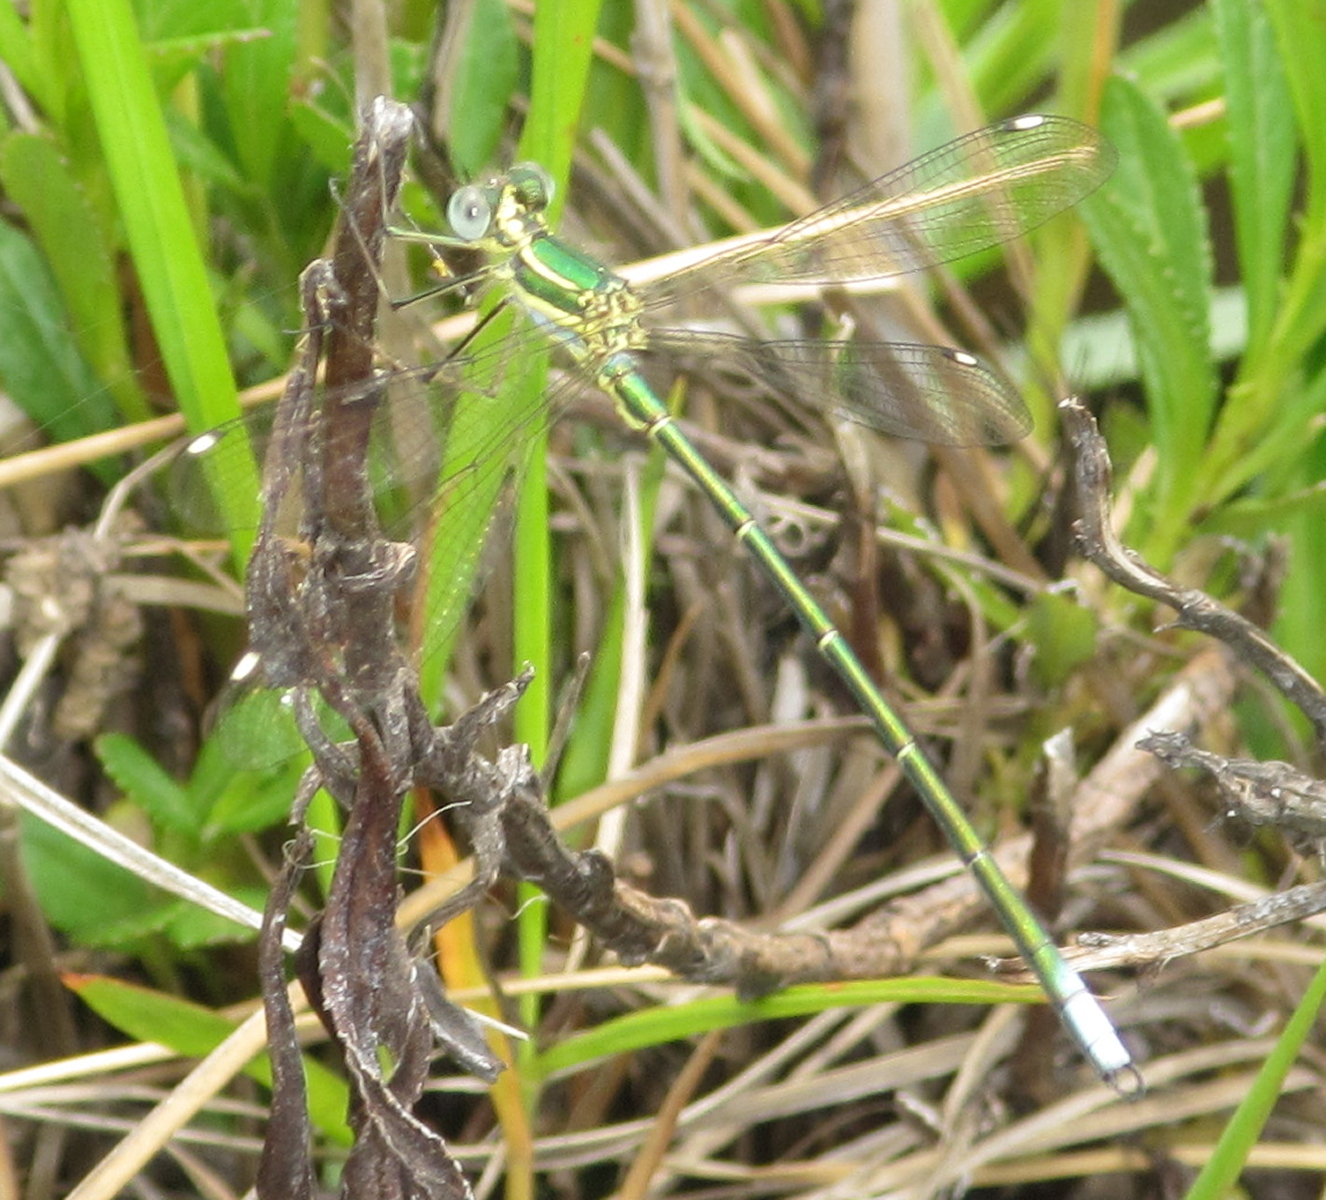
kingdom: Animalia
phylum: Arthropoda
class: Insecta
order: Odonata
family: Synlestidae
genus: Chlorolestes
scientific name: Chlorolestes fasciatus
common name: Mountain malachite
